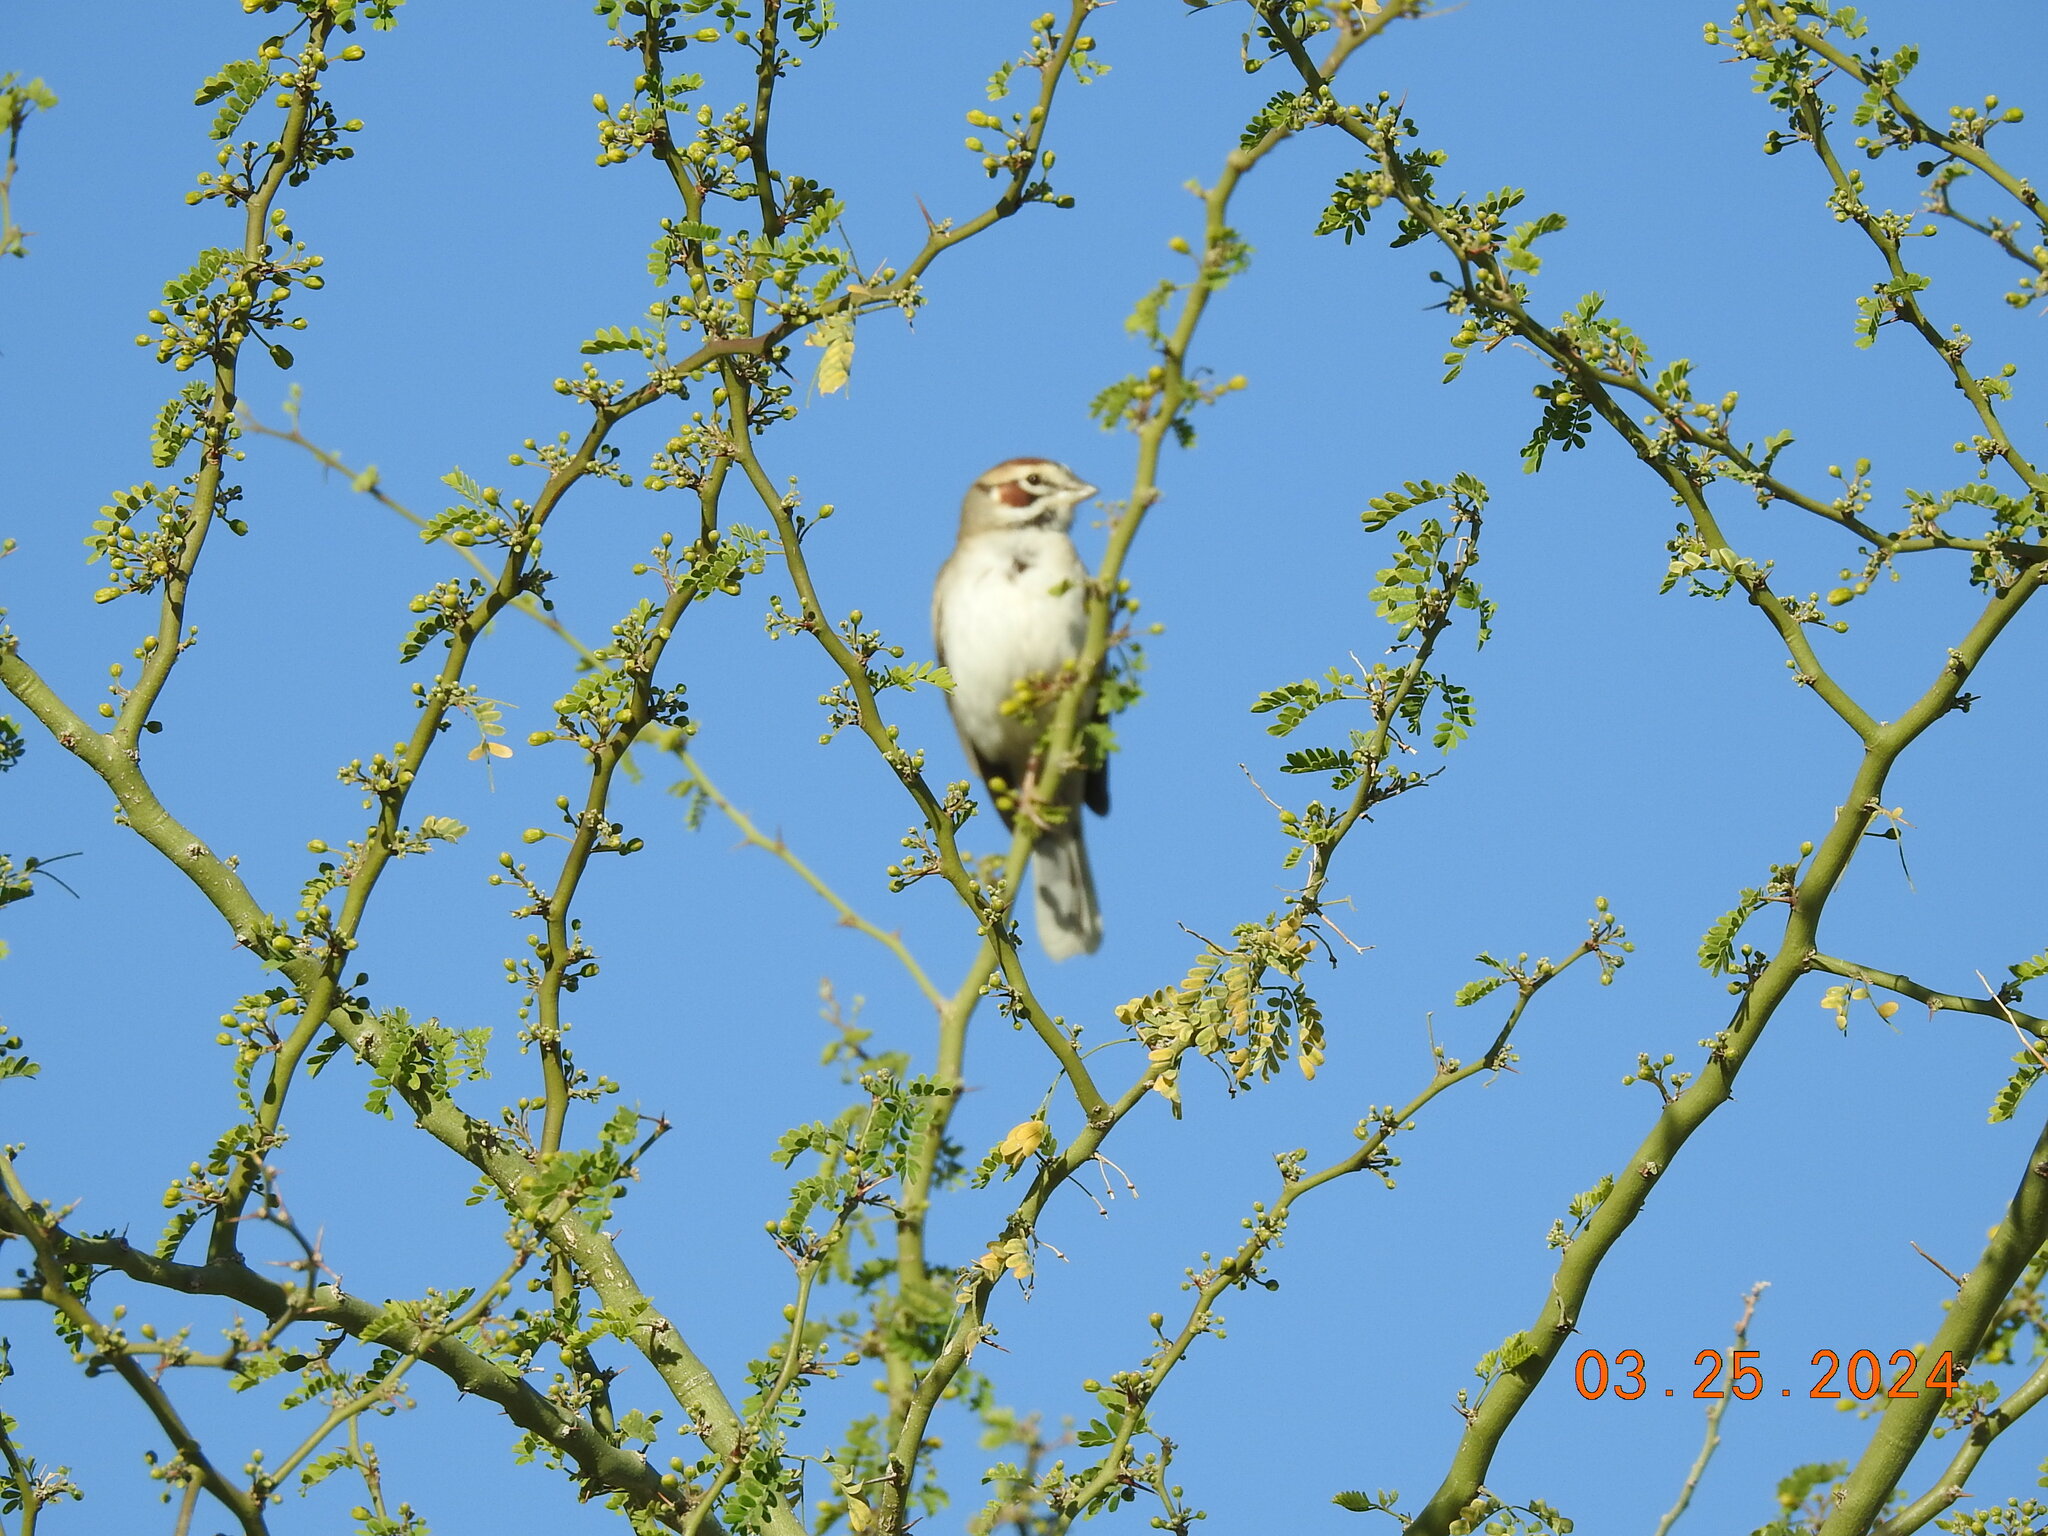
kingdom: Animalia
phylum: Chordata
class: Aves
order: Passeriformes
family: Passerellidae
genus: Chondestes
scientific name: Chondestes grammacus
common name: Lark sparrow
